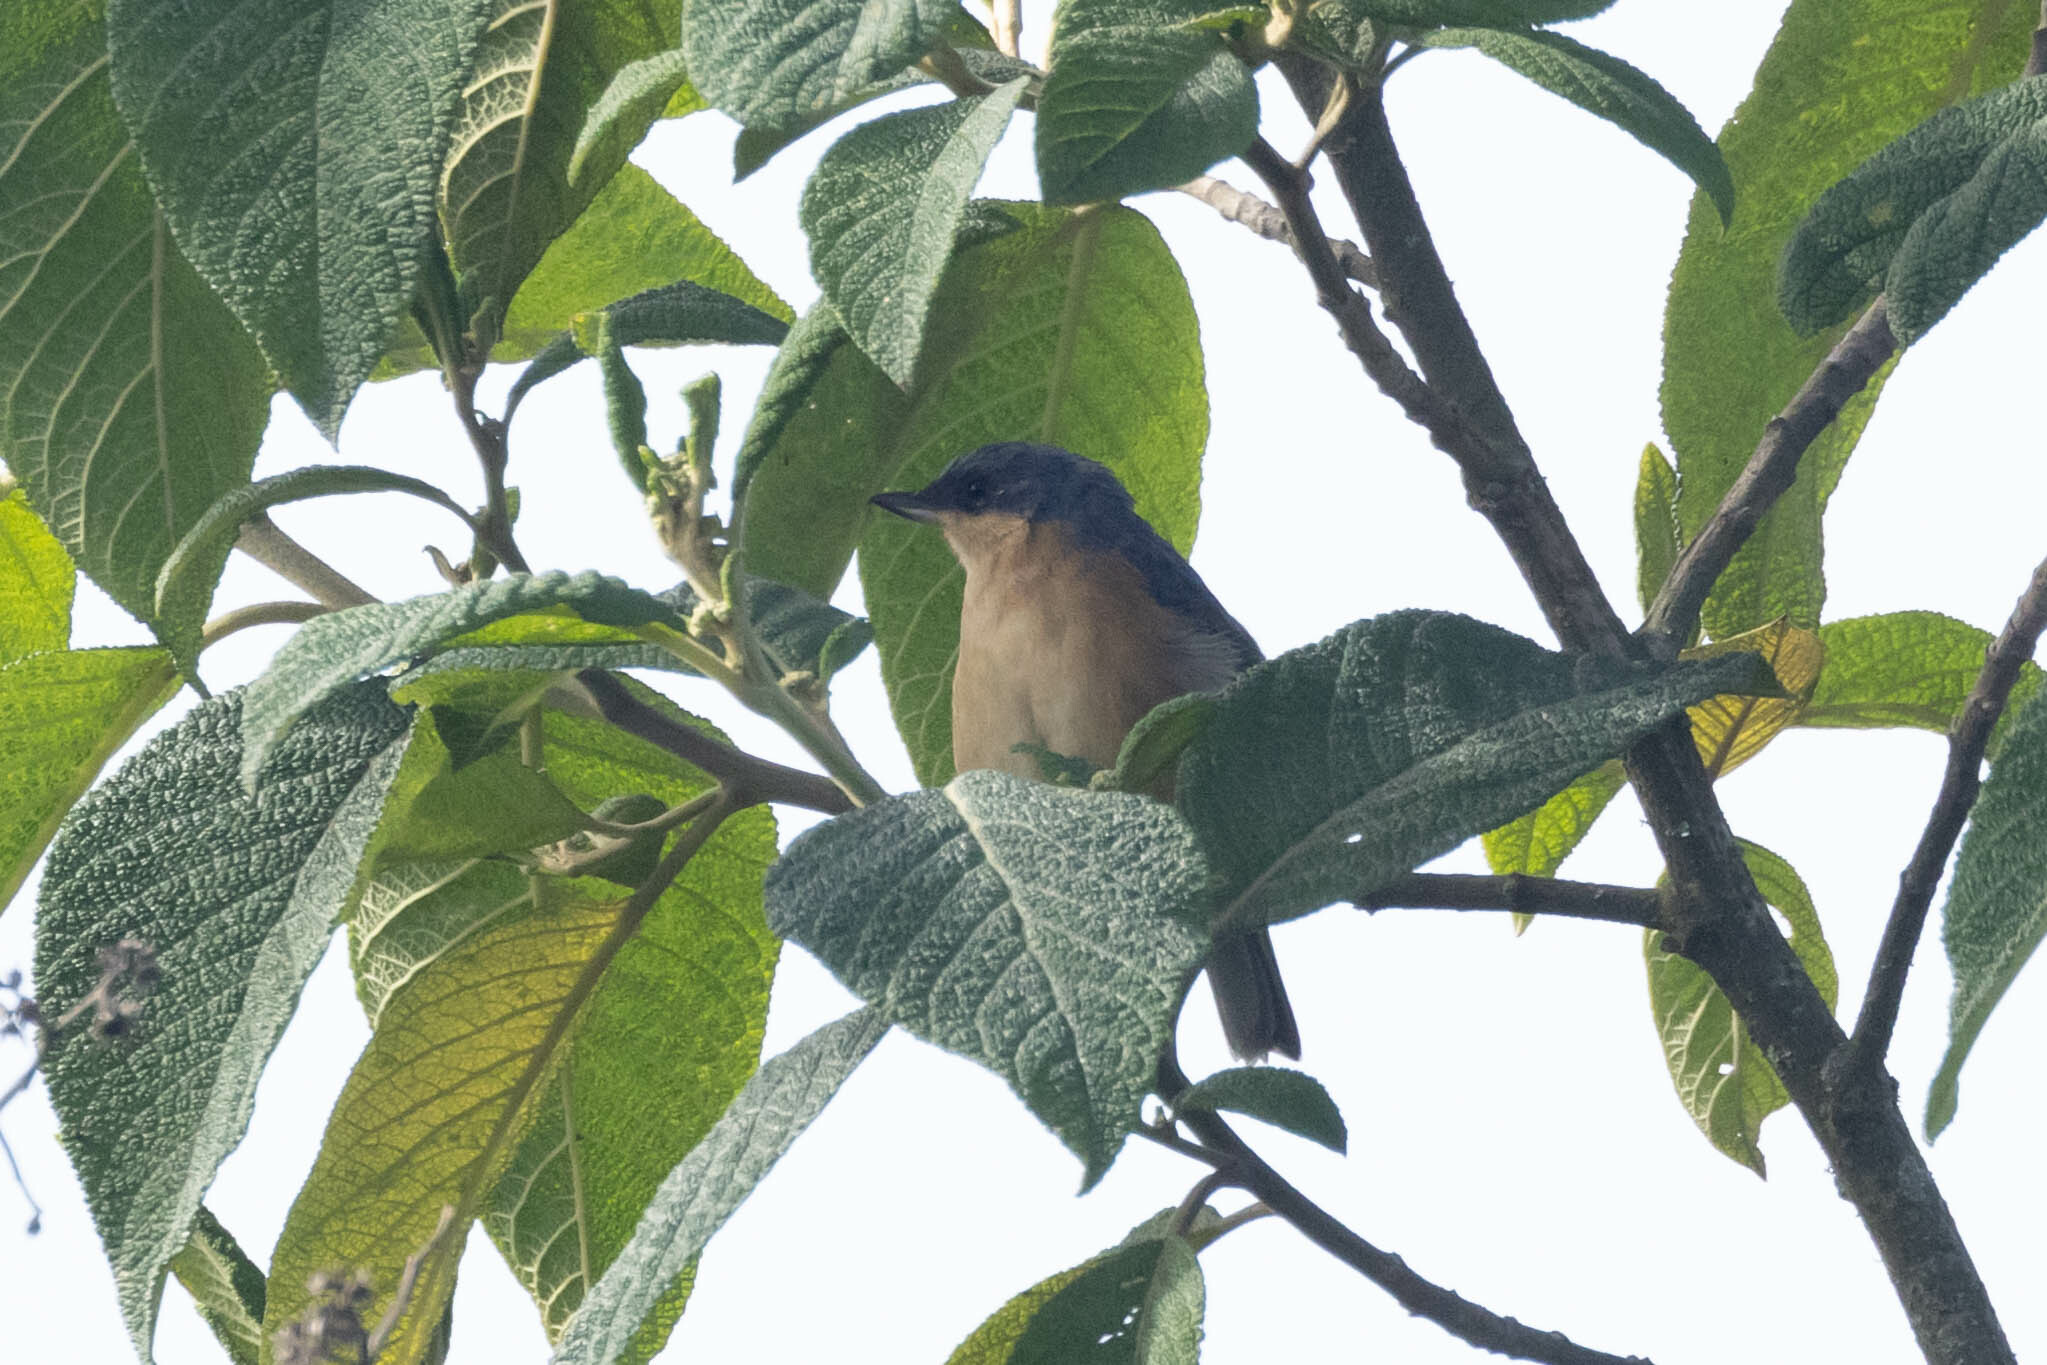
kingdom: Animalia
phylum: Chordata
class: Aves
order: Passeriformes
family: Thraupidae
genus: Diglossa
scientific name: Diglossa sittoides
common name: Rusty flowerpiercer
